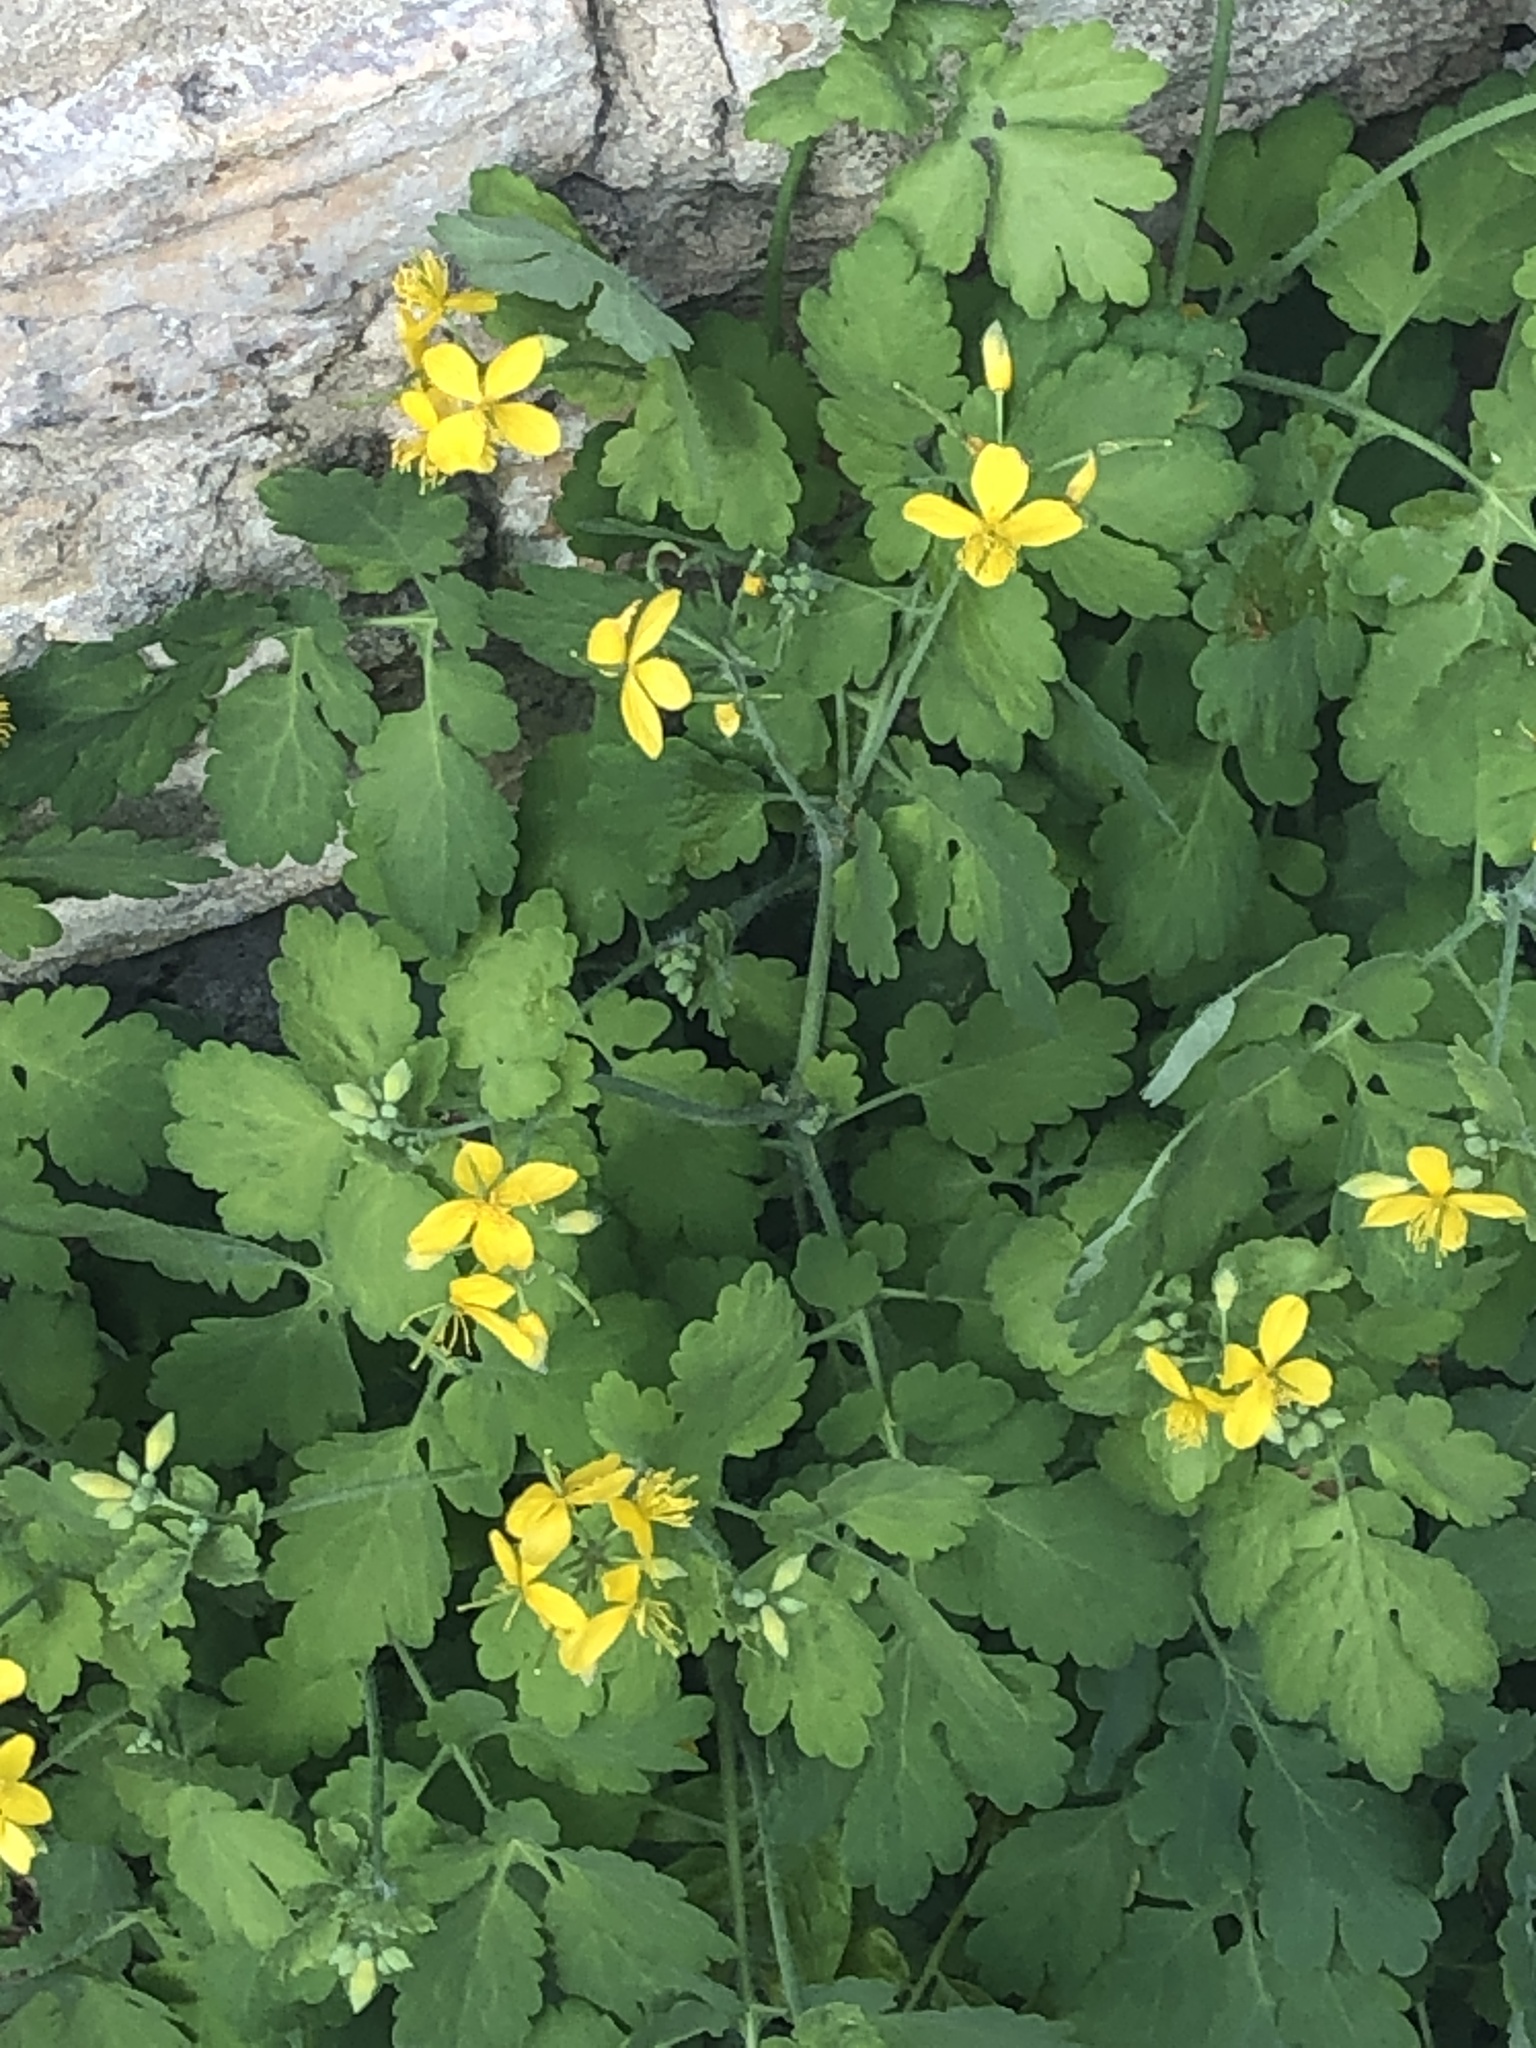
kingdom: Plantae
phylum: Tracheophyta
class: Magnoliopsida
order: Ranunculales
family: Papaveraceae
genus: Chelidonium
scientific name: Chelidonium majus
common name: Greater celandine
